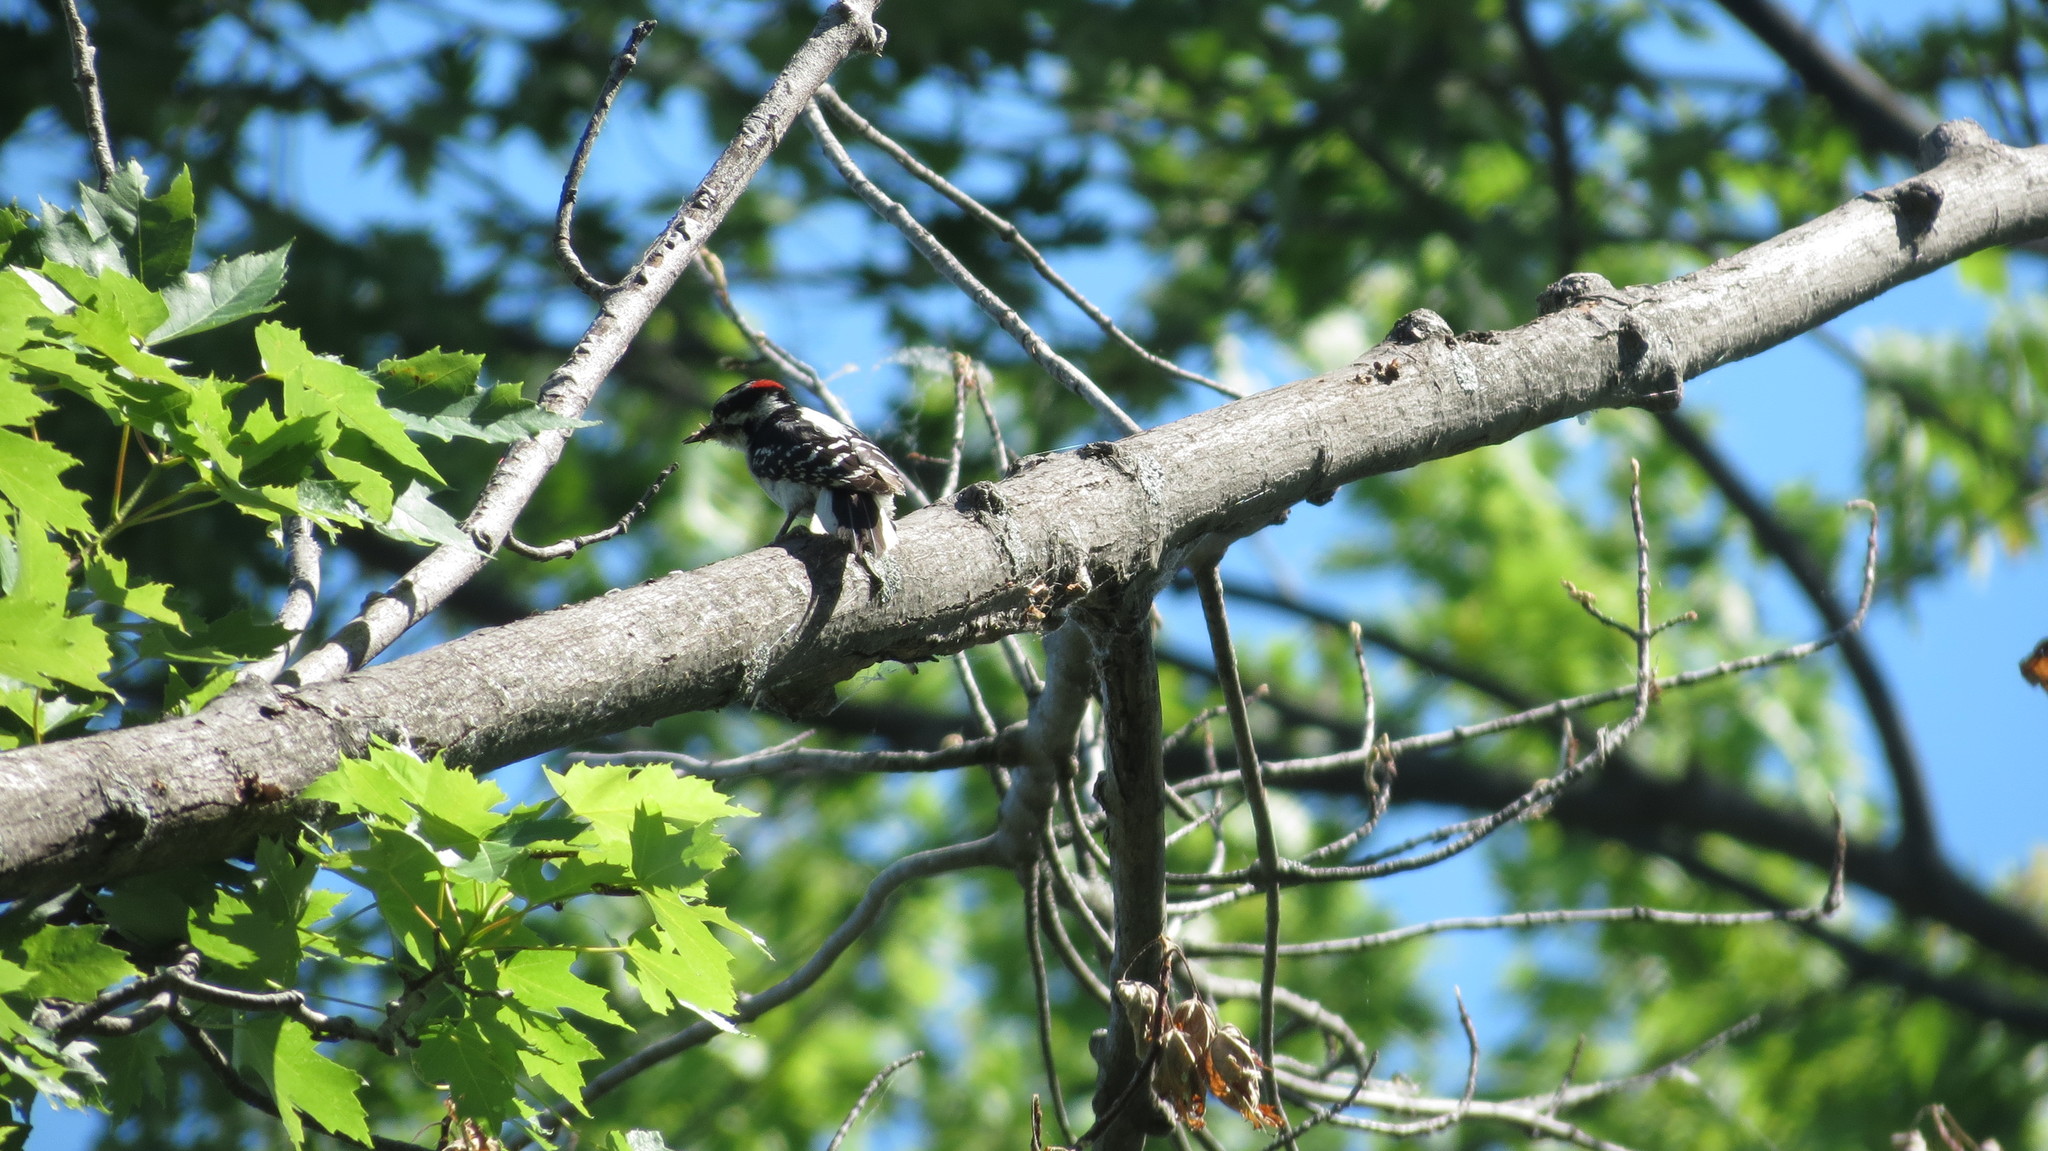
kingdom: Animalia
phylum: Chordata
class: Aves
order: Piciformes
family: Picidae
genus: Dryobates
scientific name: Dryobates pubescens
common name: Downy woodpecker
